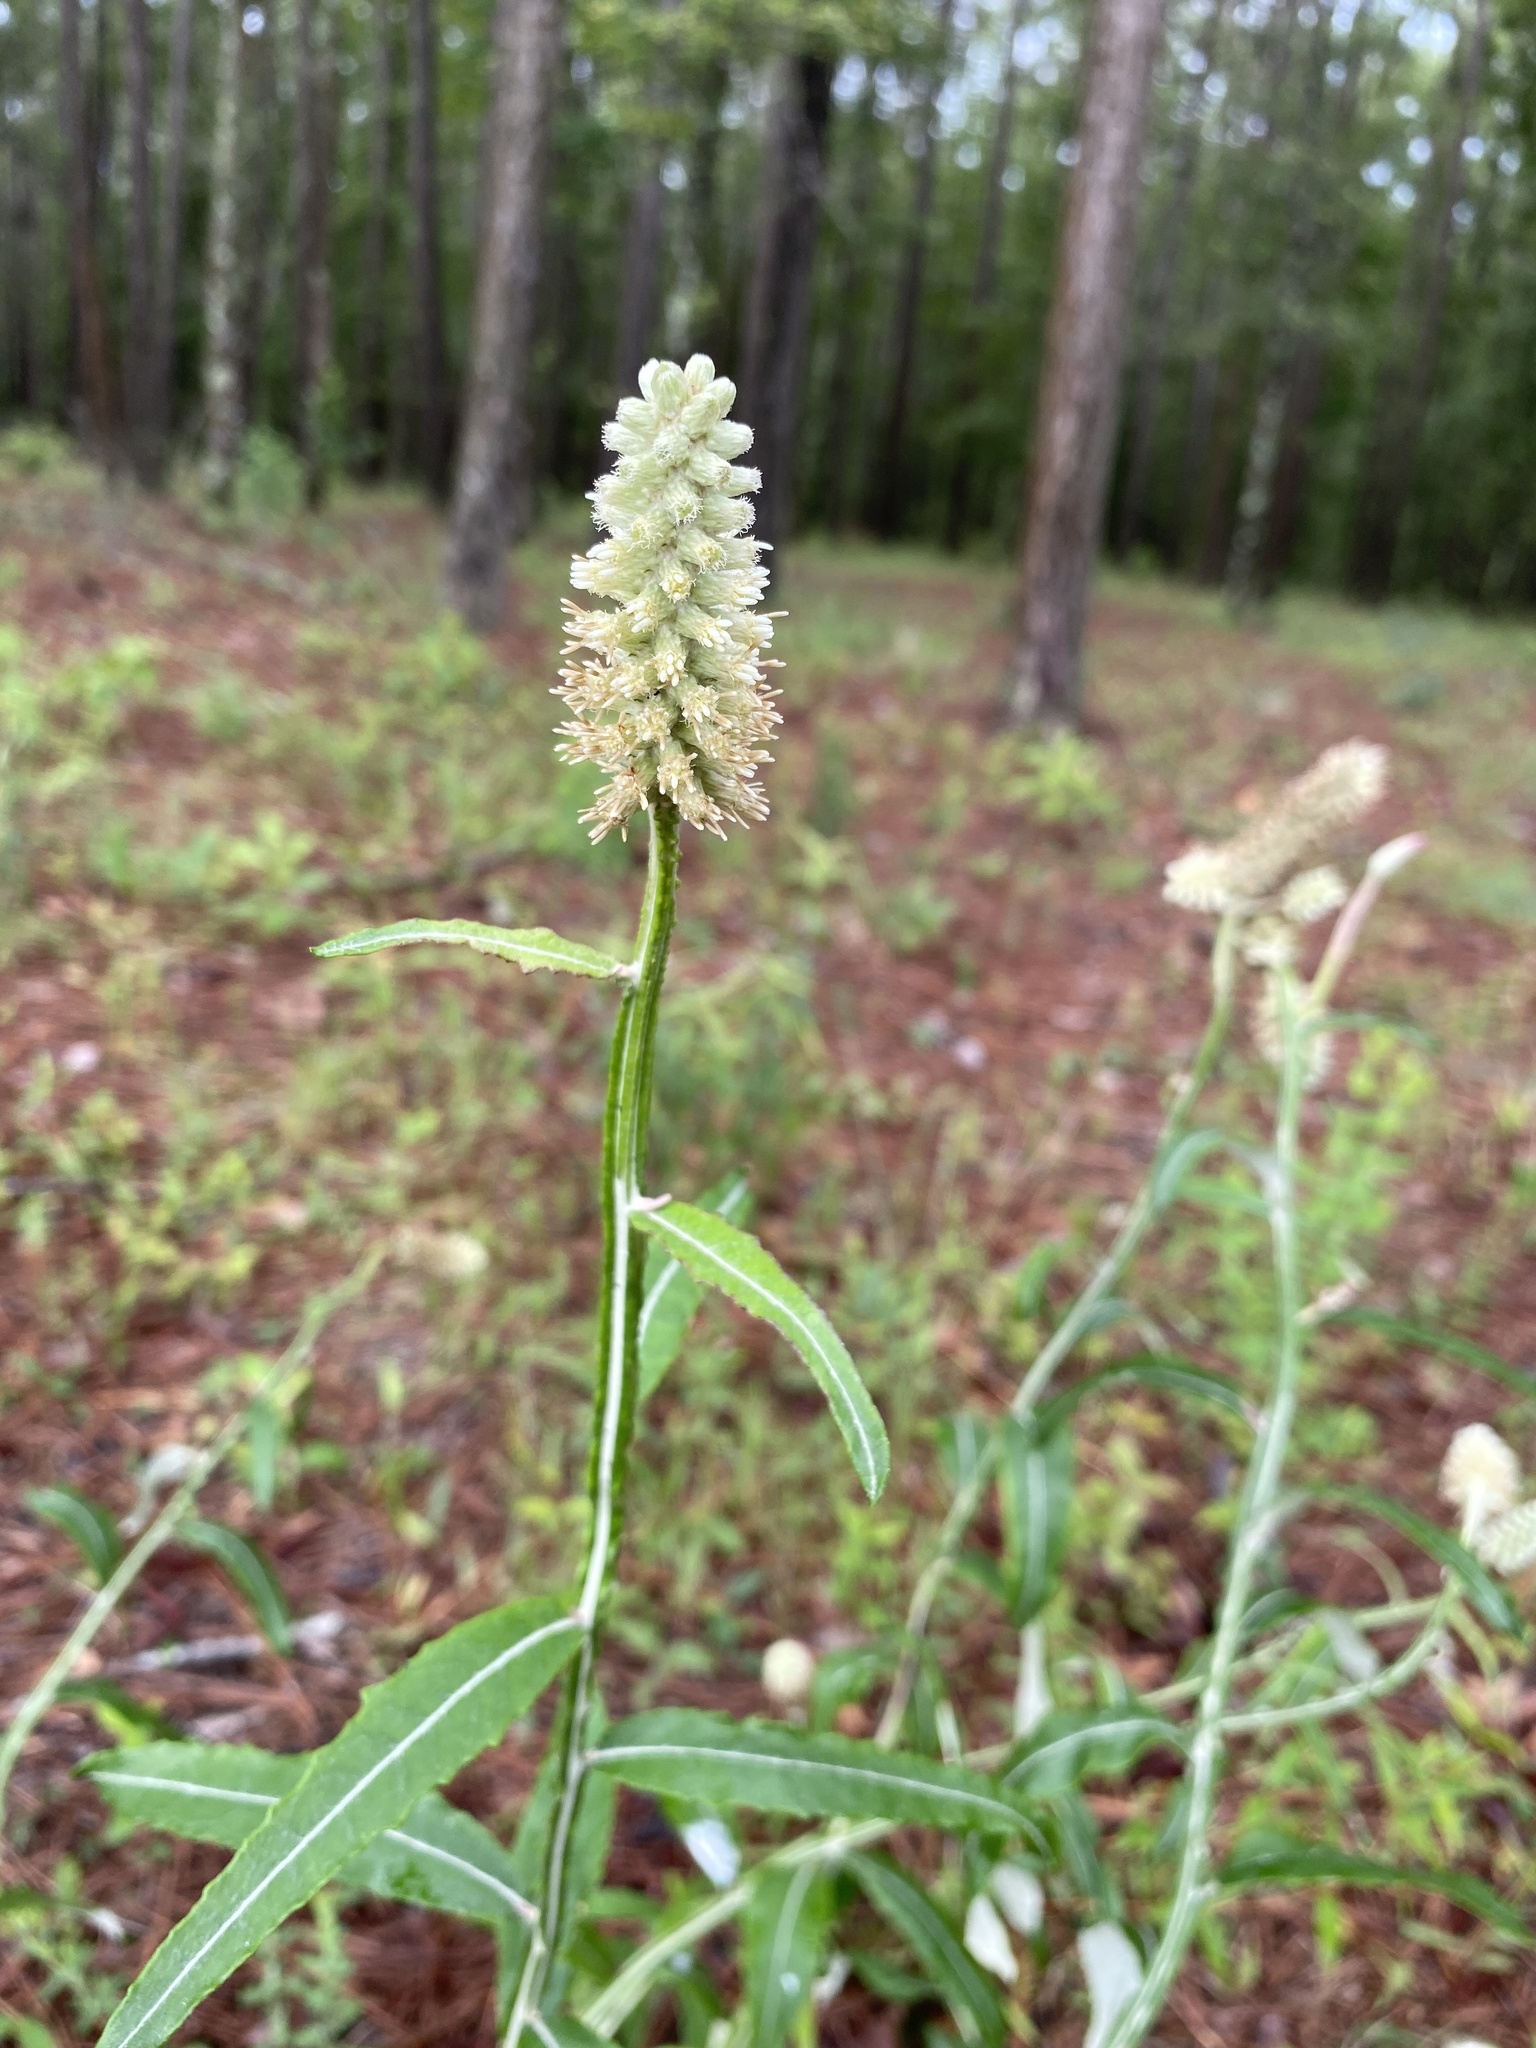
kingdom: Plantae
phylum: Tracheophyta
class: Magnoliopsida
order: Asterales
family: Asteraceae
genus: Pterocaulon
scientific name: Pterocaulon pycnostachyum
